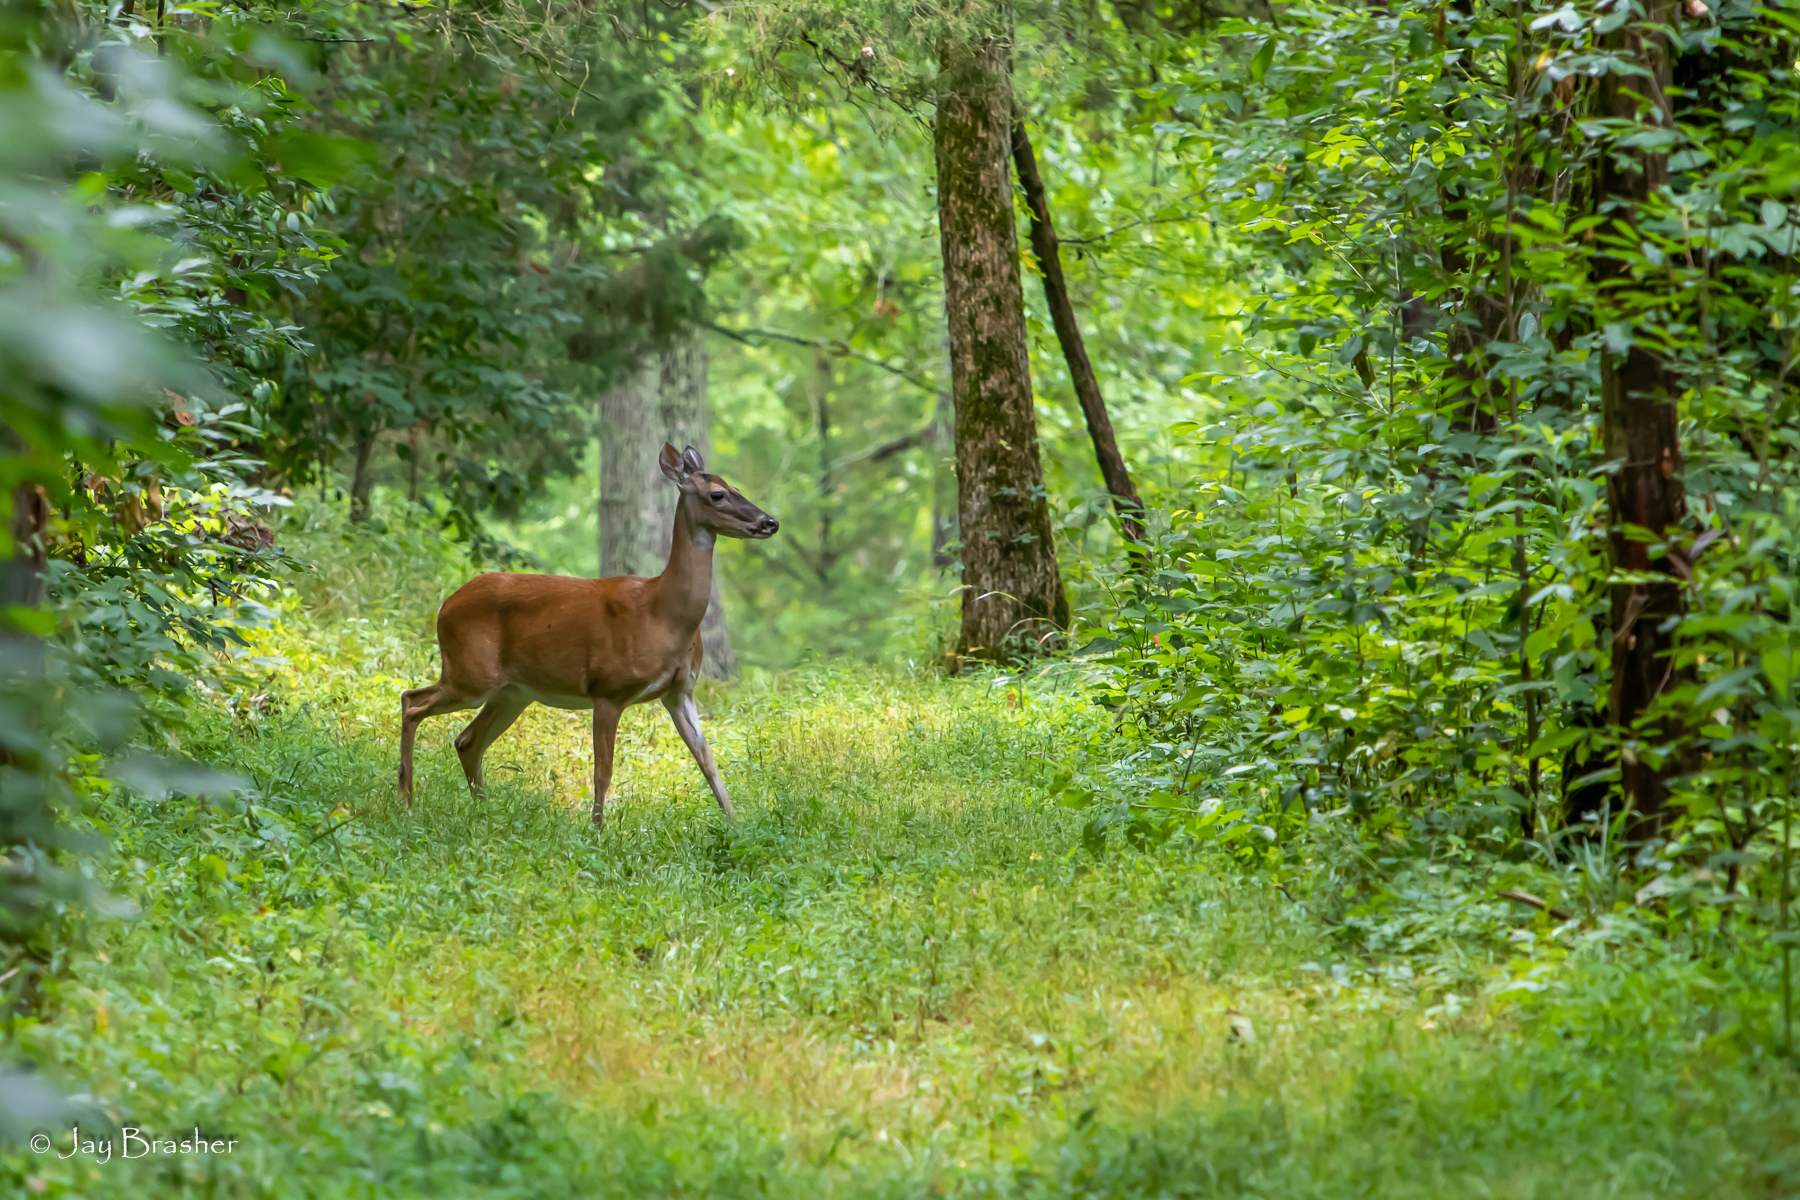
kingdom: Animalia
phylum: Chordata
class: Mammalia
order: Artiodactyla
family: Cervidae
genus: Odocoileus
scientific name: Odocoileus virginianus
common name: White-tailed deer
